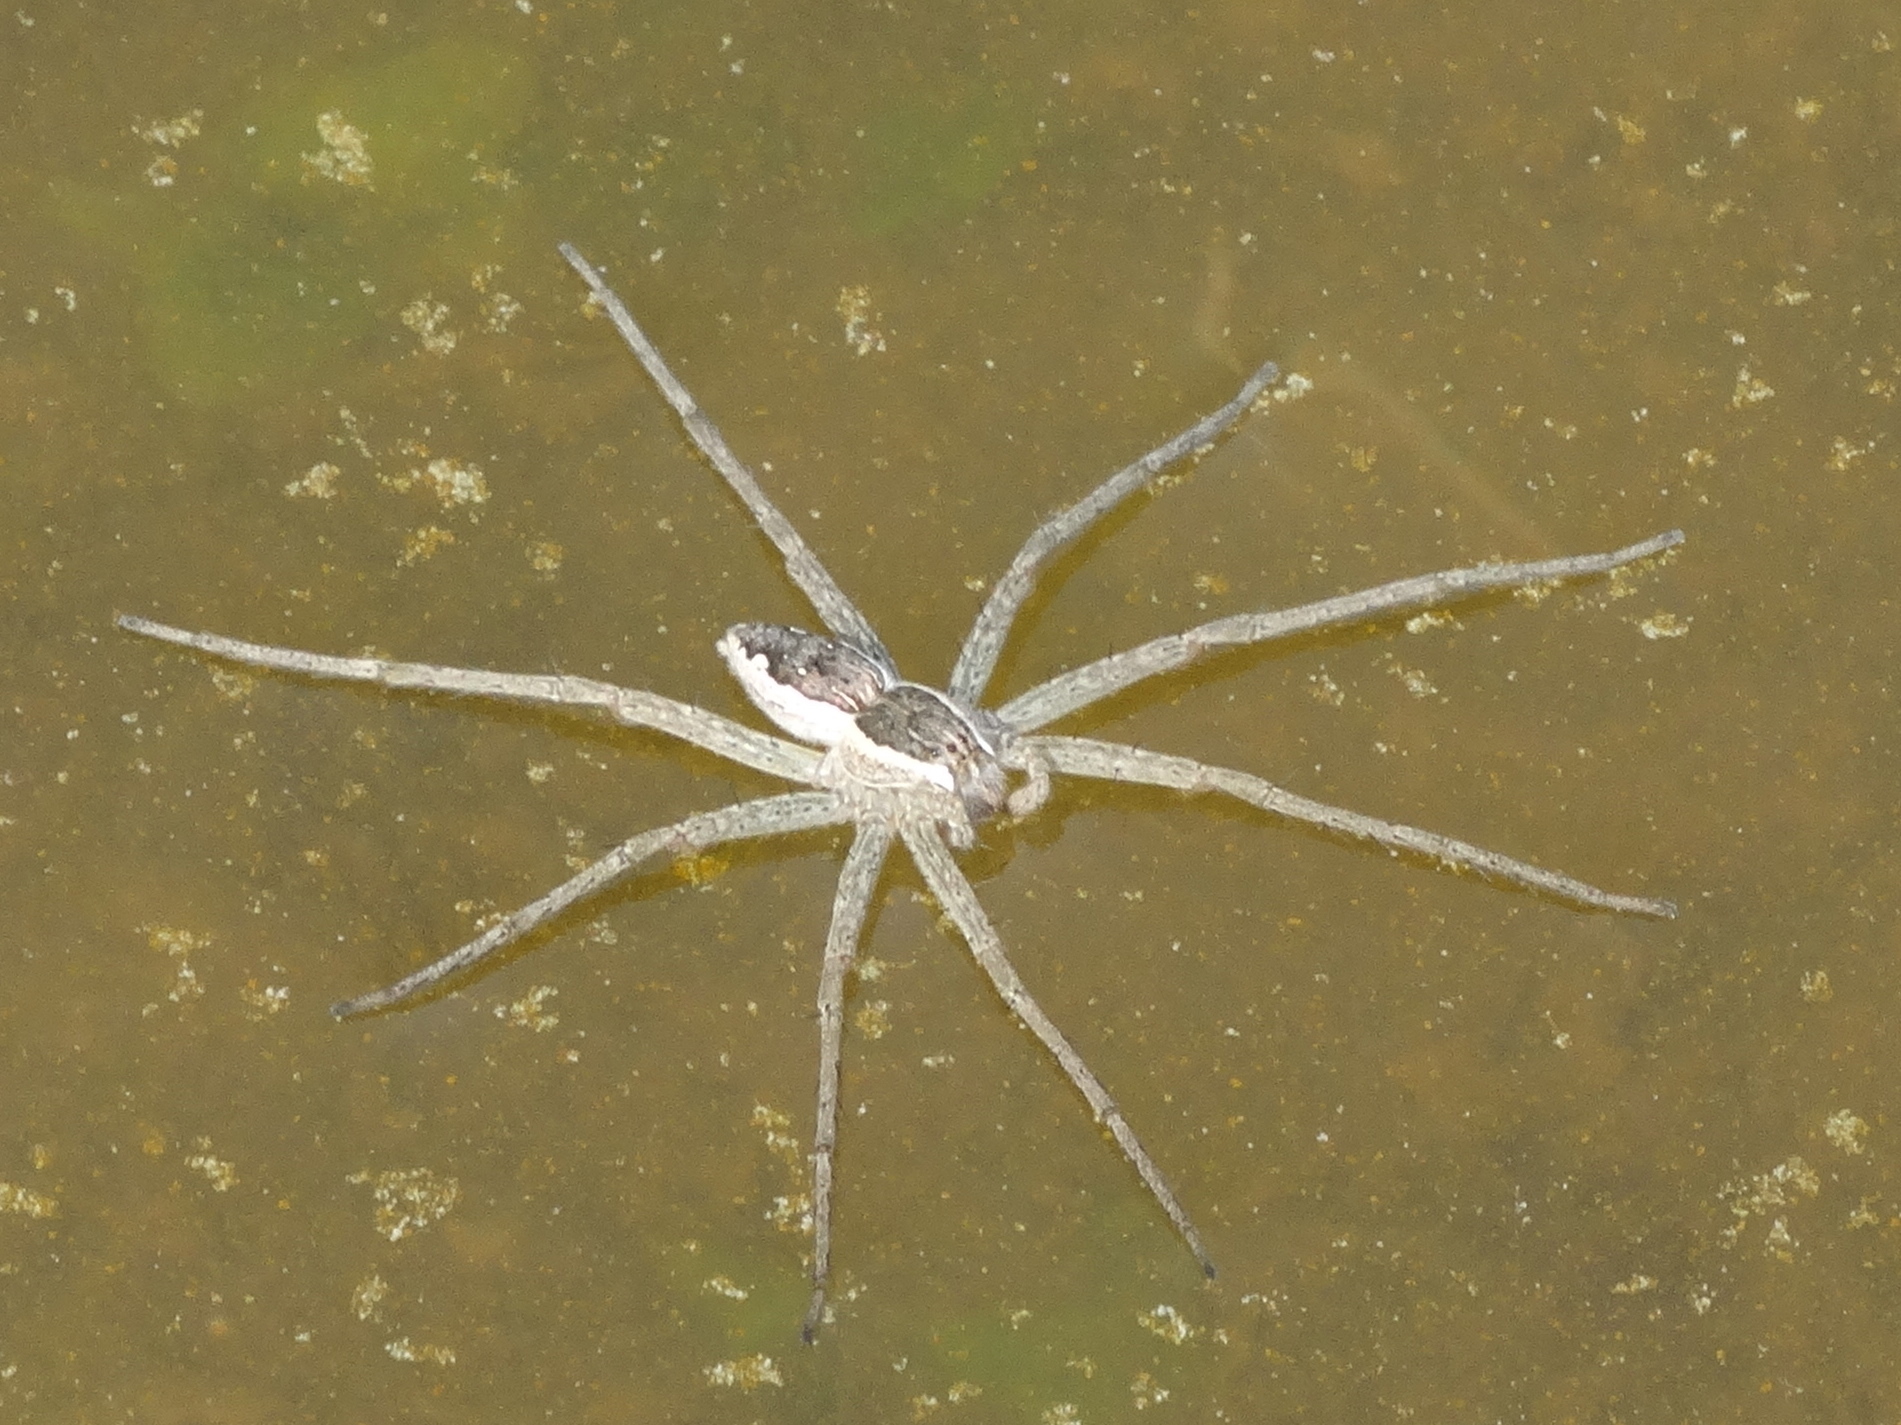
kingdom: Animalia
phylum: Arthropoda
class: Arachnida
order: Araneae
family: Pisauridae
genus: Tinus
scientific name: Tinus
